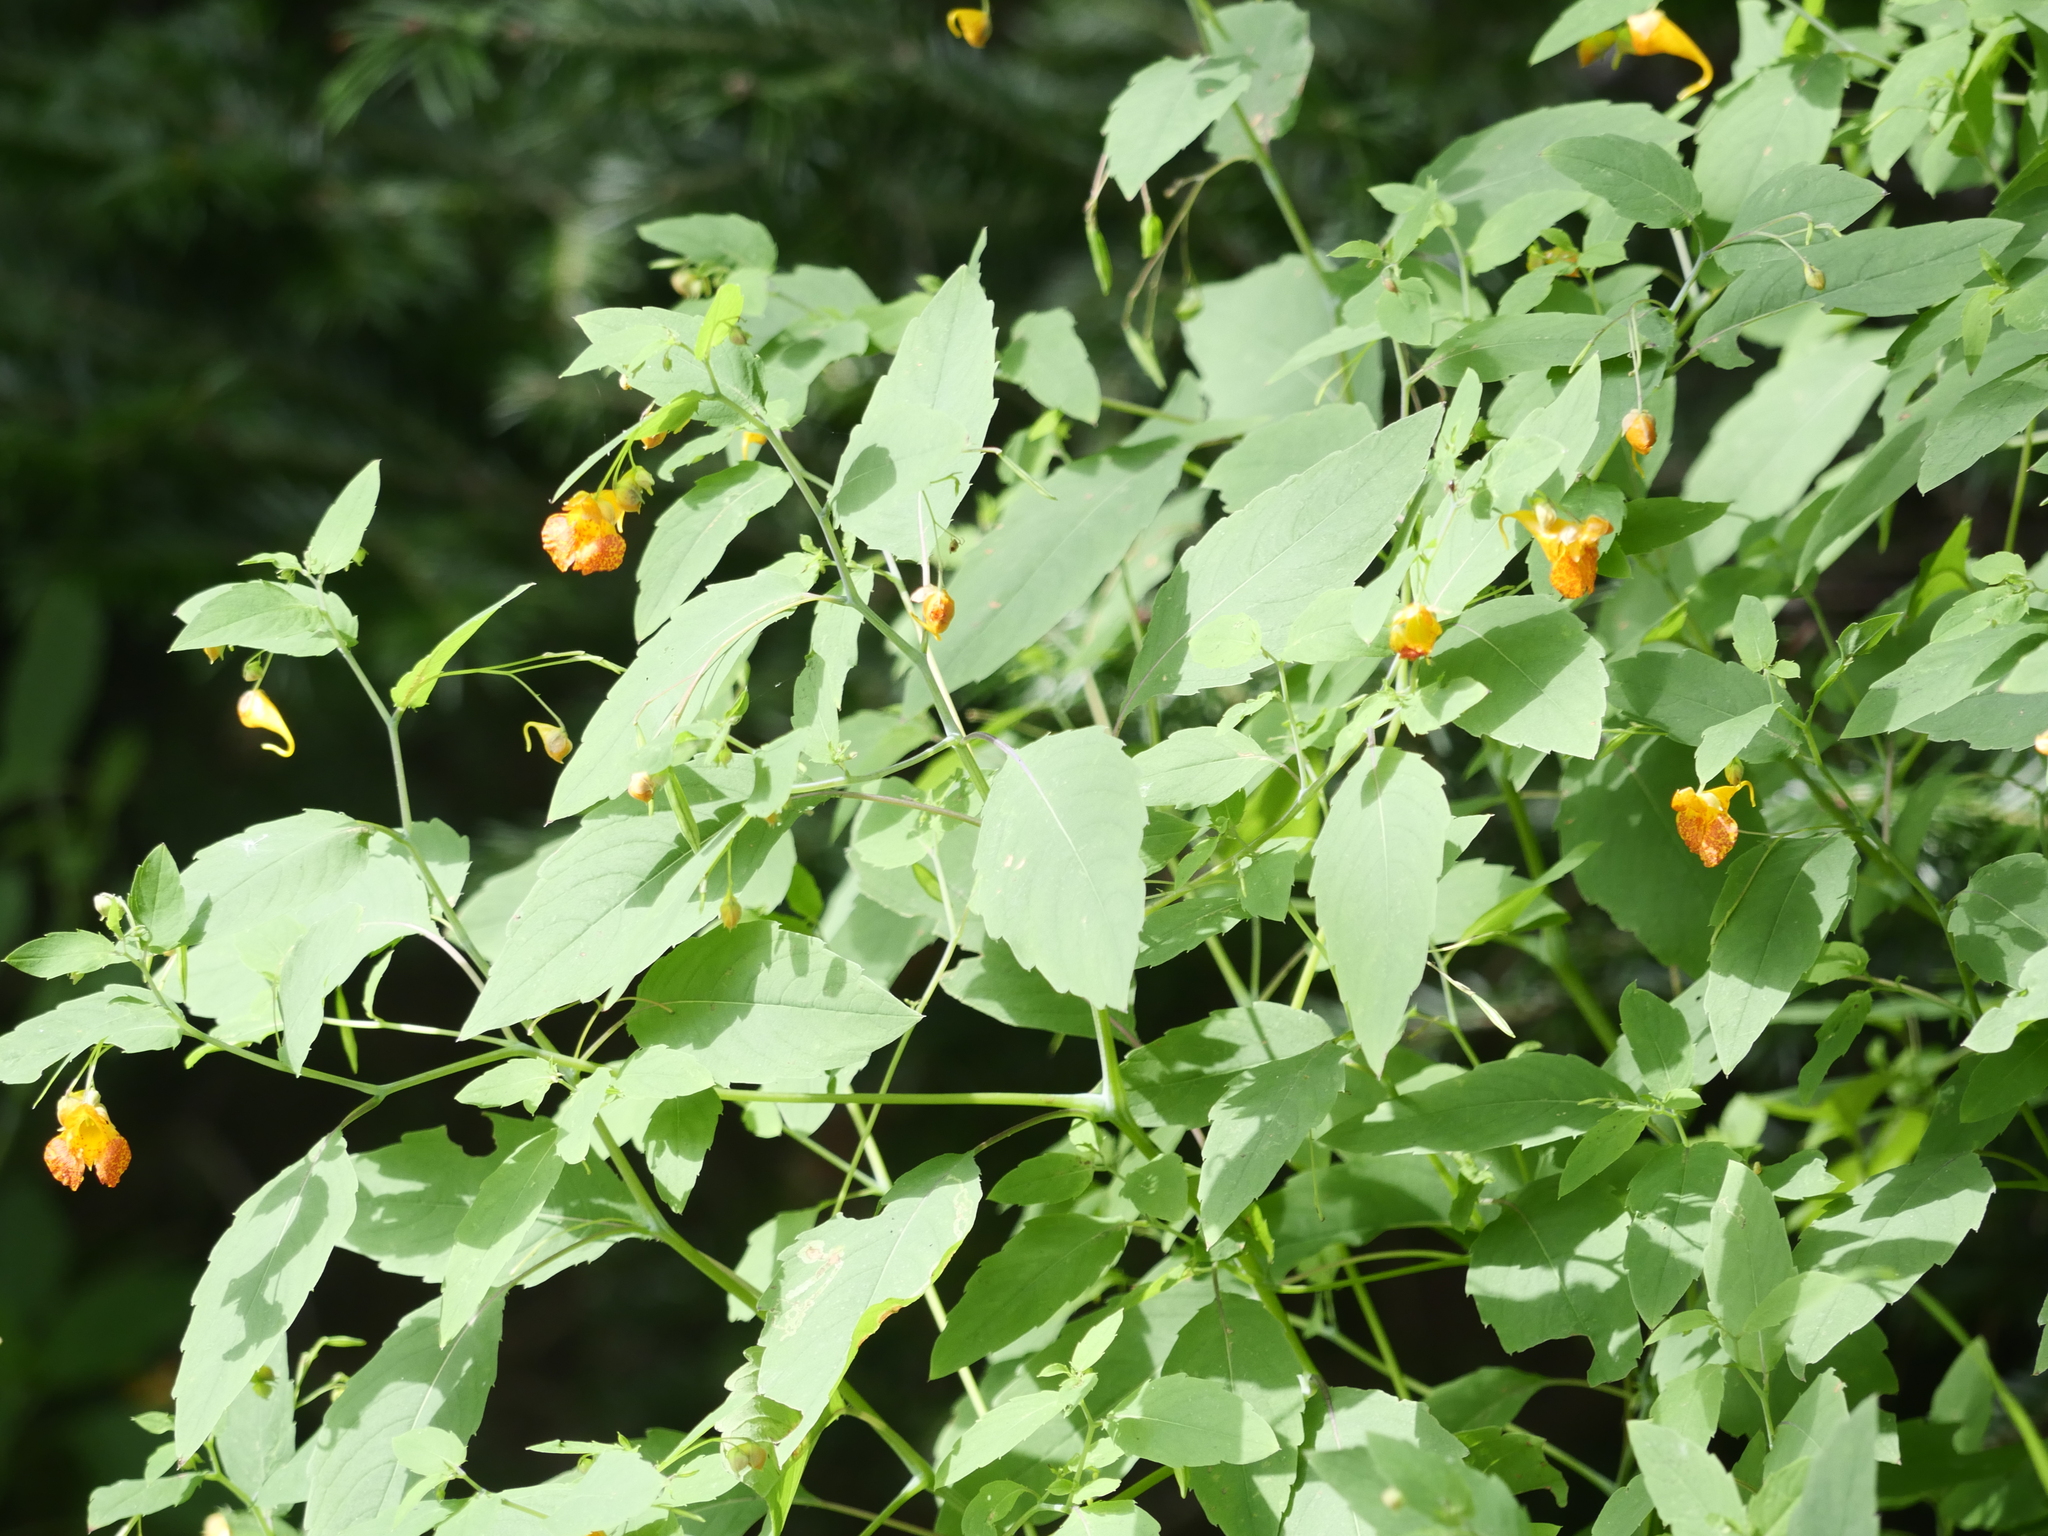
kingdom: Plantae
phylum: Tracheophyta
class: Magnoliopsida
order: Ericales
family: Balsaminaceae
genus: Impatiens
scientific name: Impatiens capensis
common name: Orange balsam
